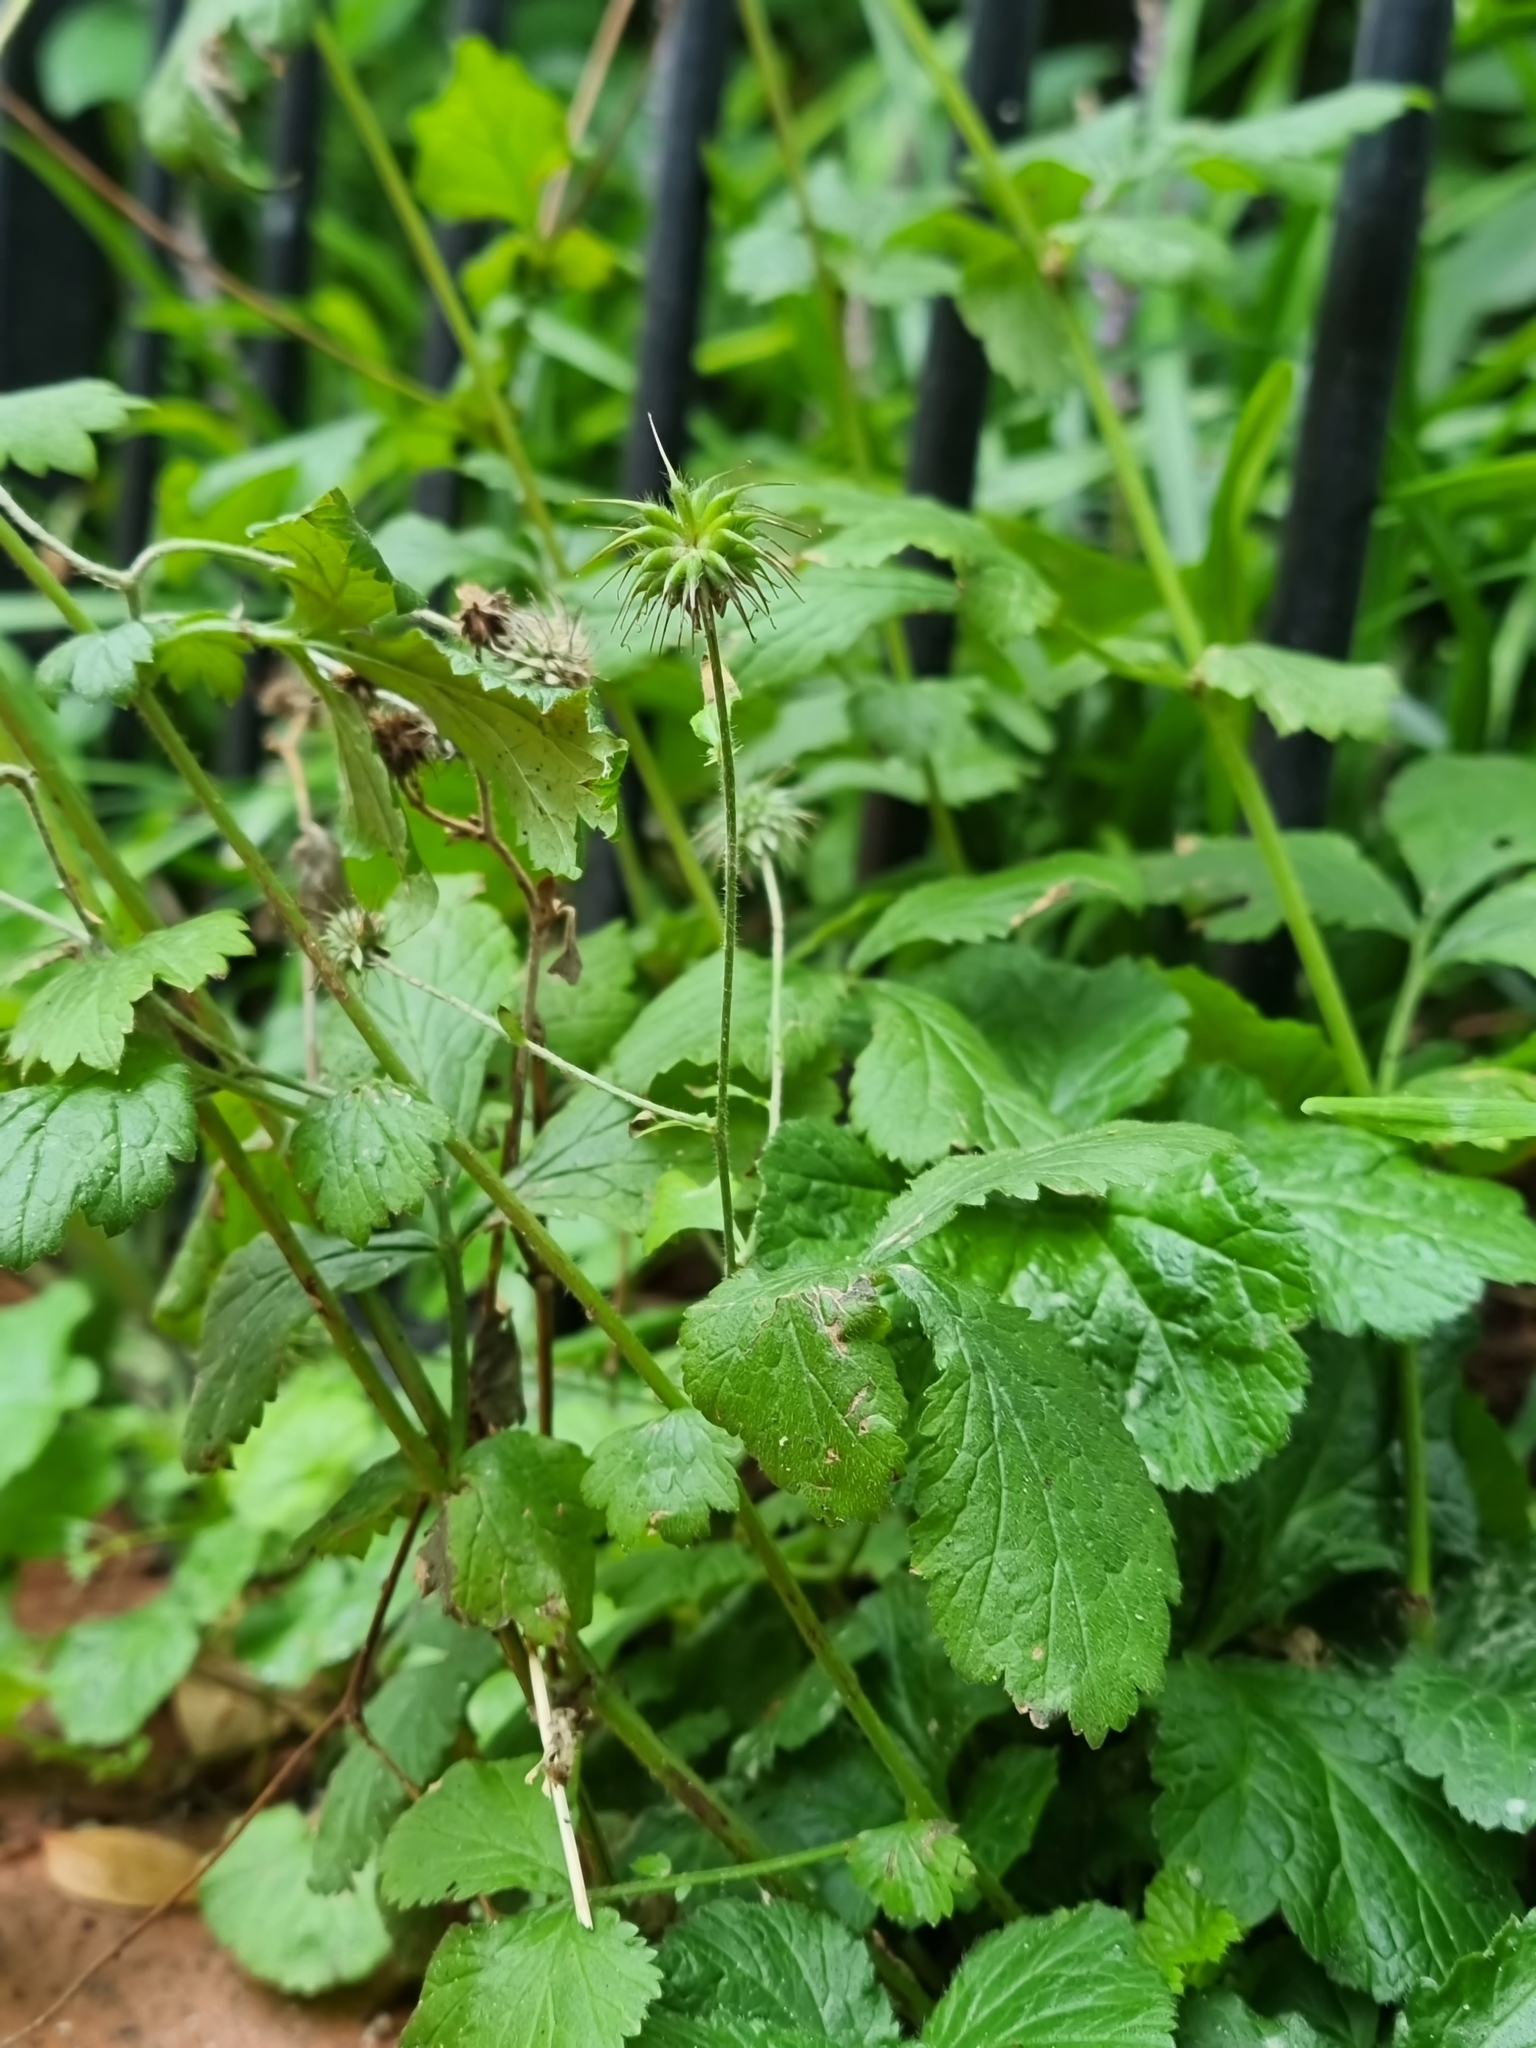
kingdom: Plantae
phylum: Tracheophyta
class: Magnoliopsida
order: Rosales
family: Rosaceae
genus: Geum
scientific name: Geum urbanum
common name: Wood avens
